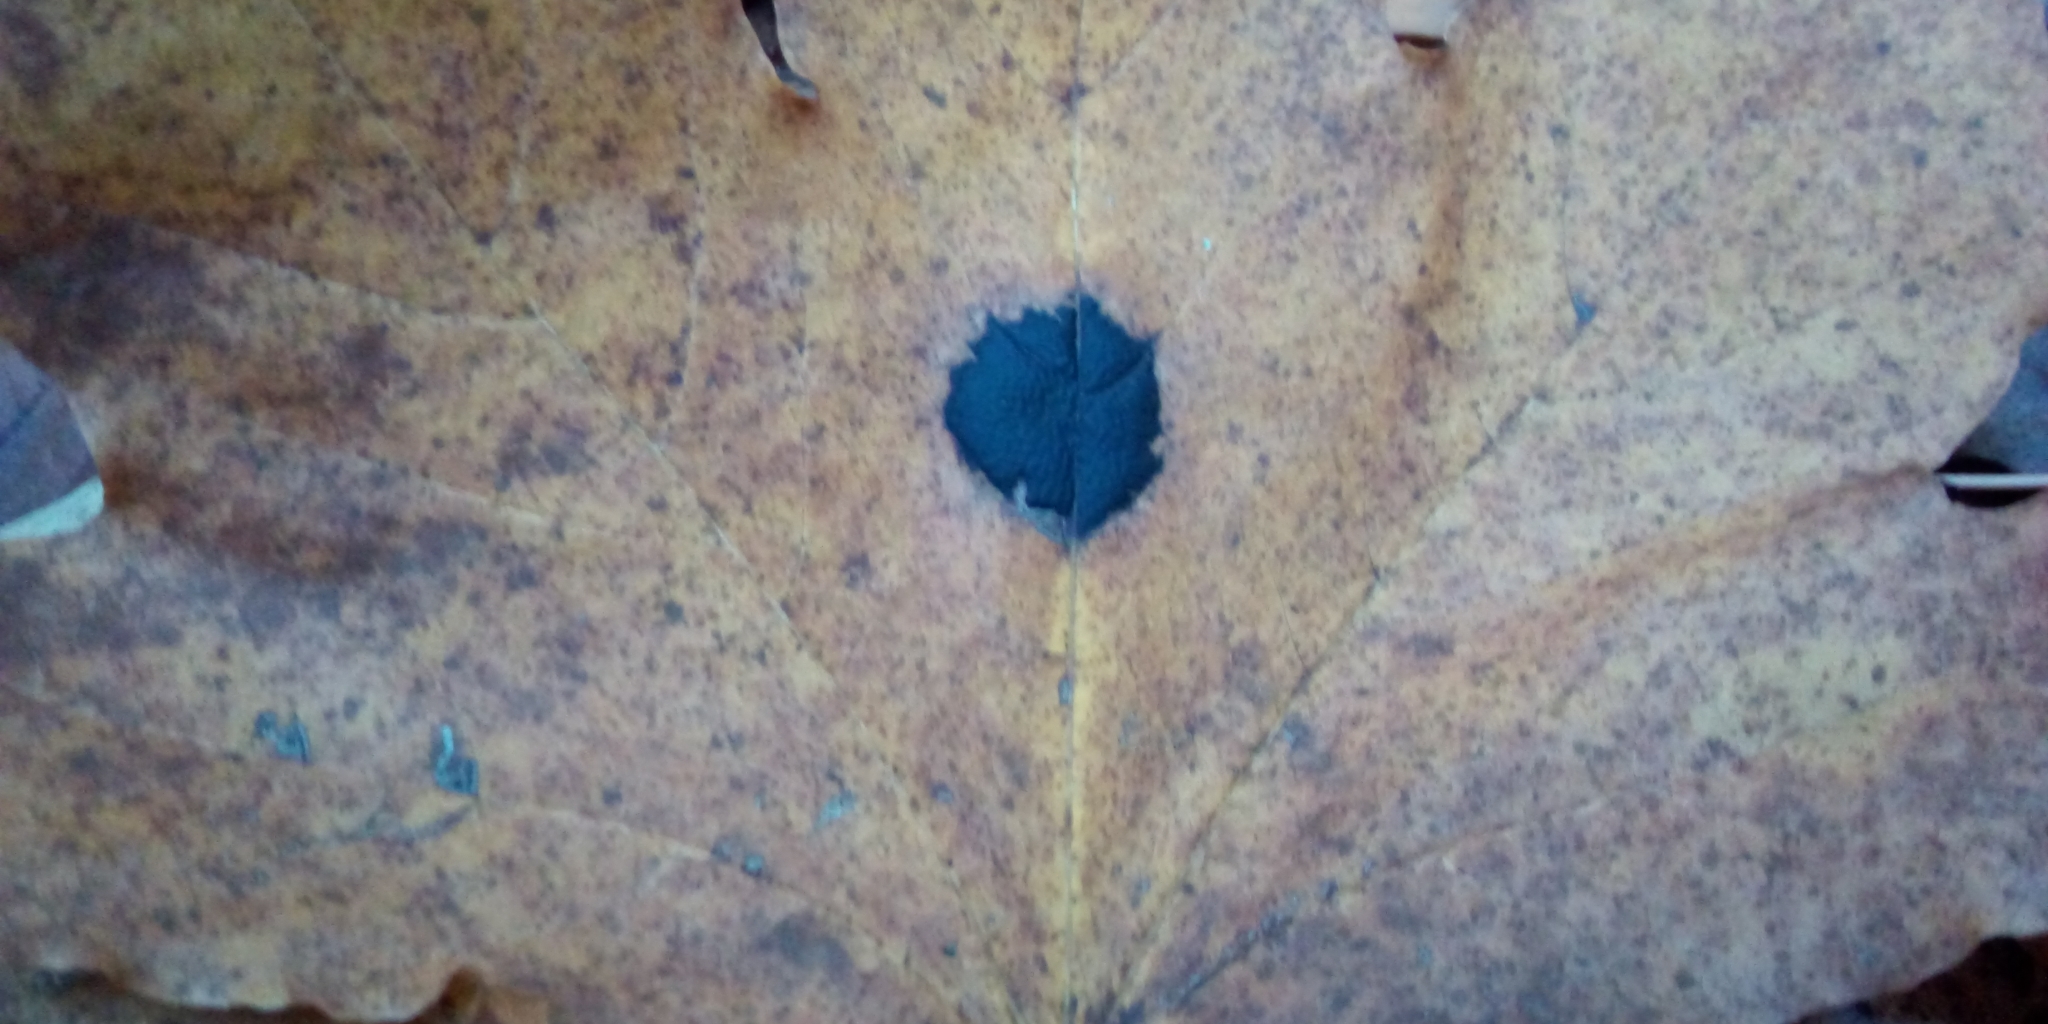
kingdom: Fungi
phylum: Ascomycota
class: Leotiomycetes
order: Rhytismatales
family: Rhytismataceae
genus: Rhytisma
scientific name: Rhytisma acerinum
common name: European tar spot
